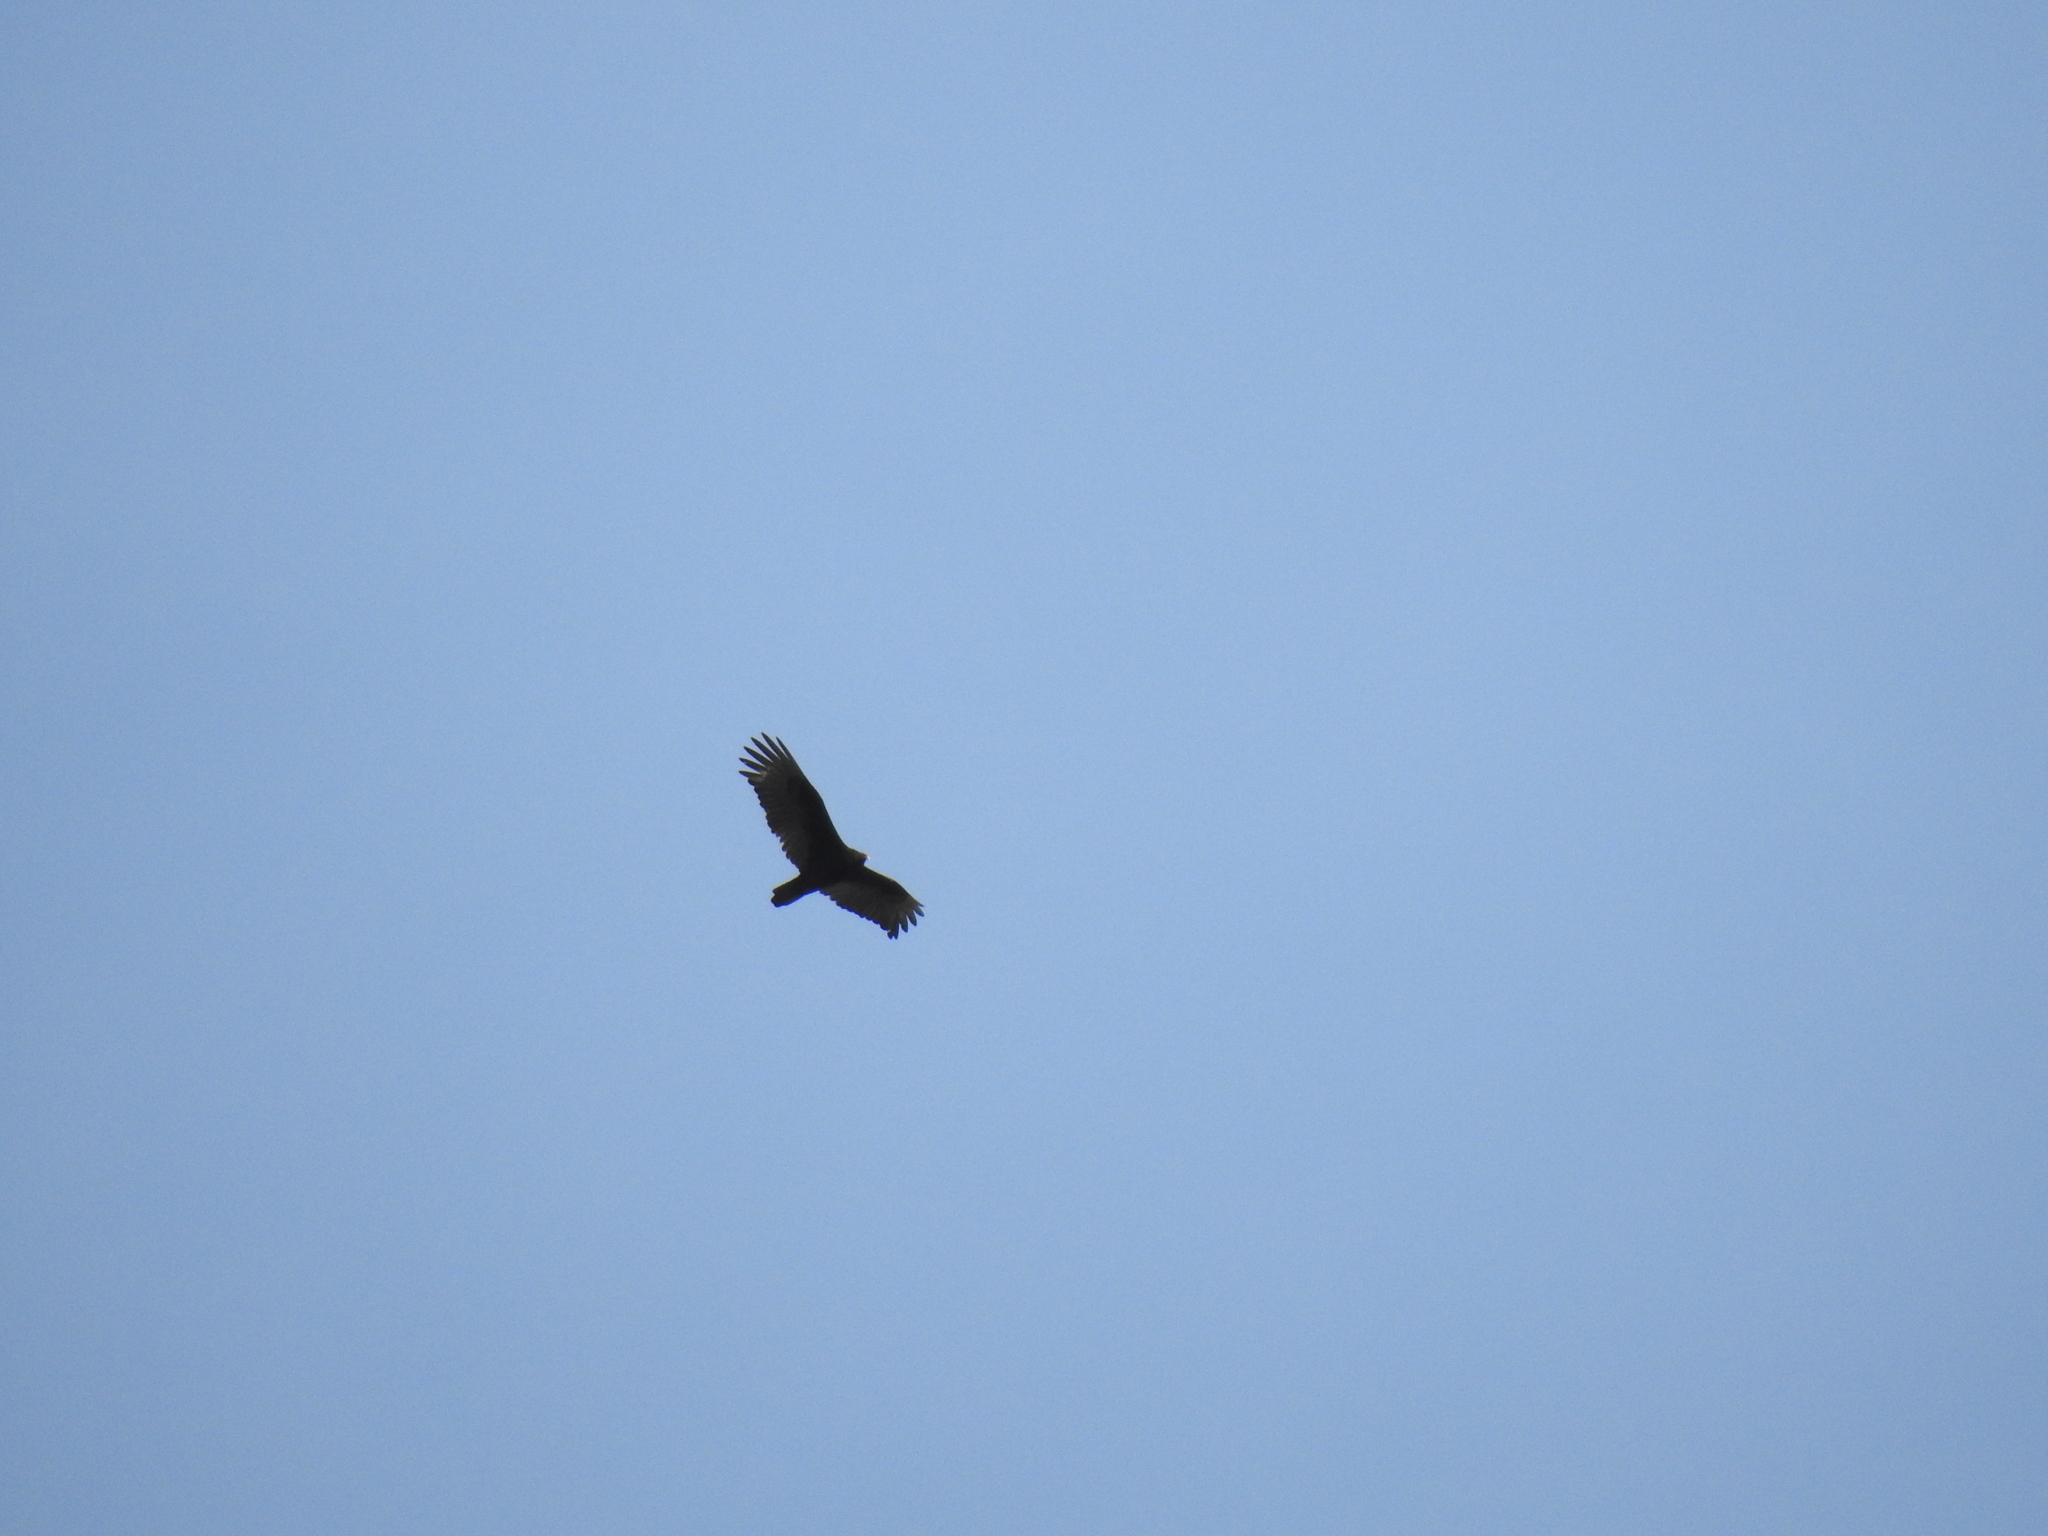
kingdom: Animalia
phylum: Chordata
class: Aves
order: Accipitriformes
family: Cathartidae
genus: Cathartes
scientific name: Cathartes aura
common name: Turkey vulture
